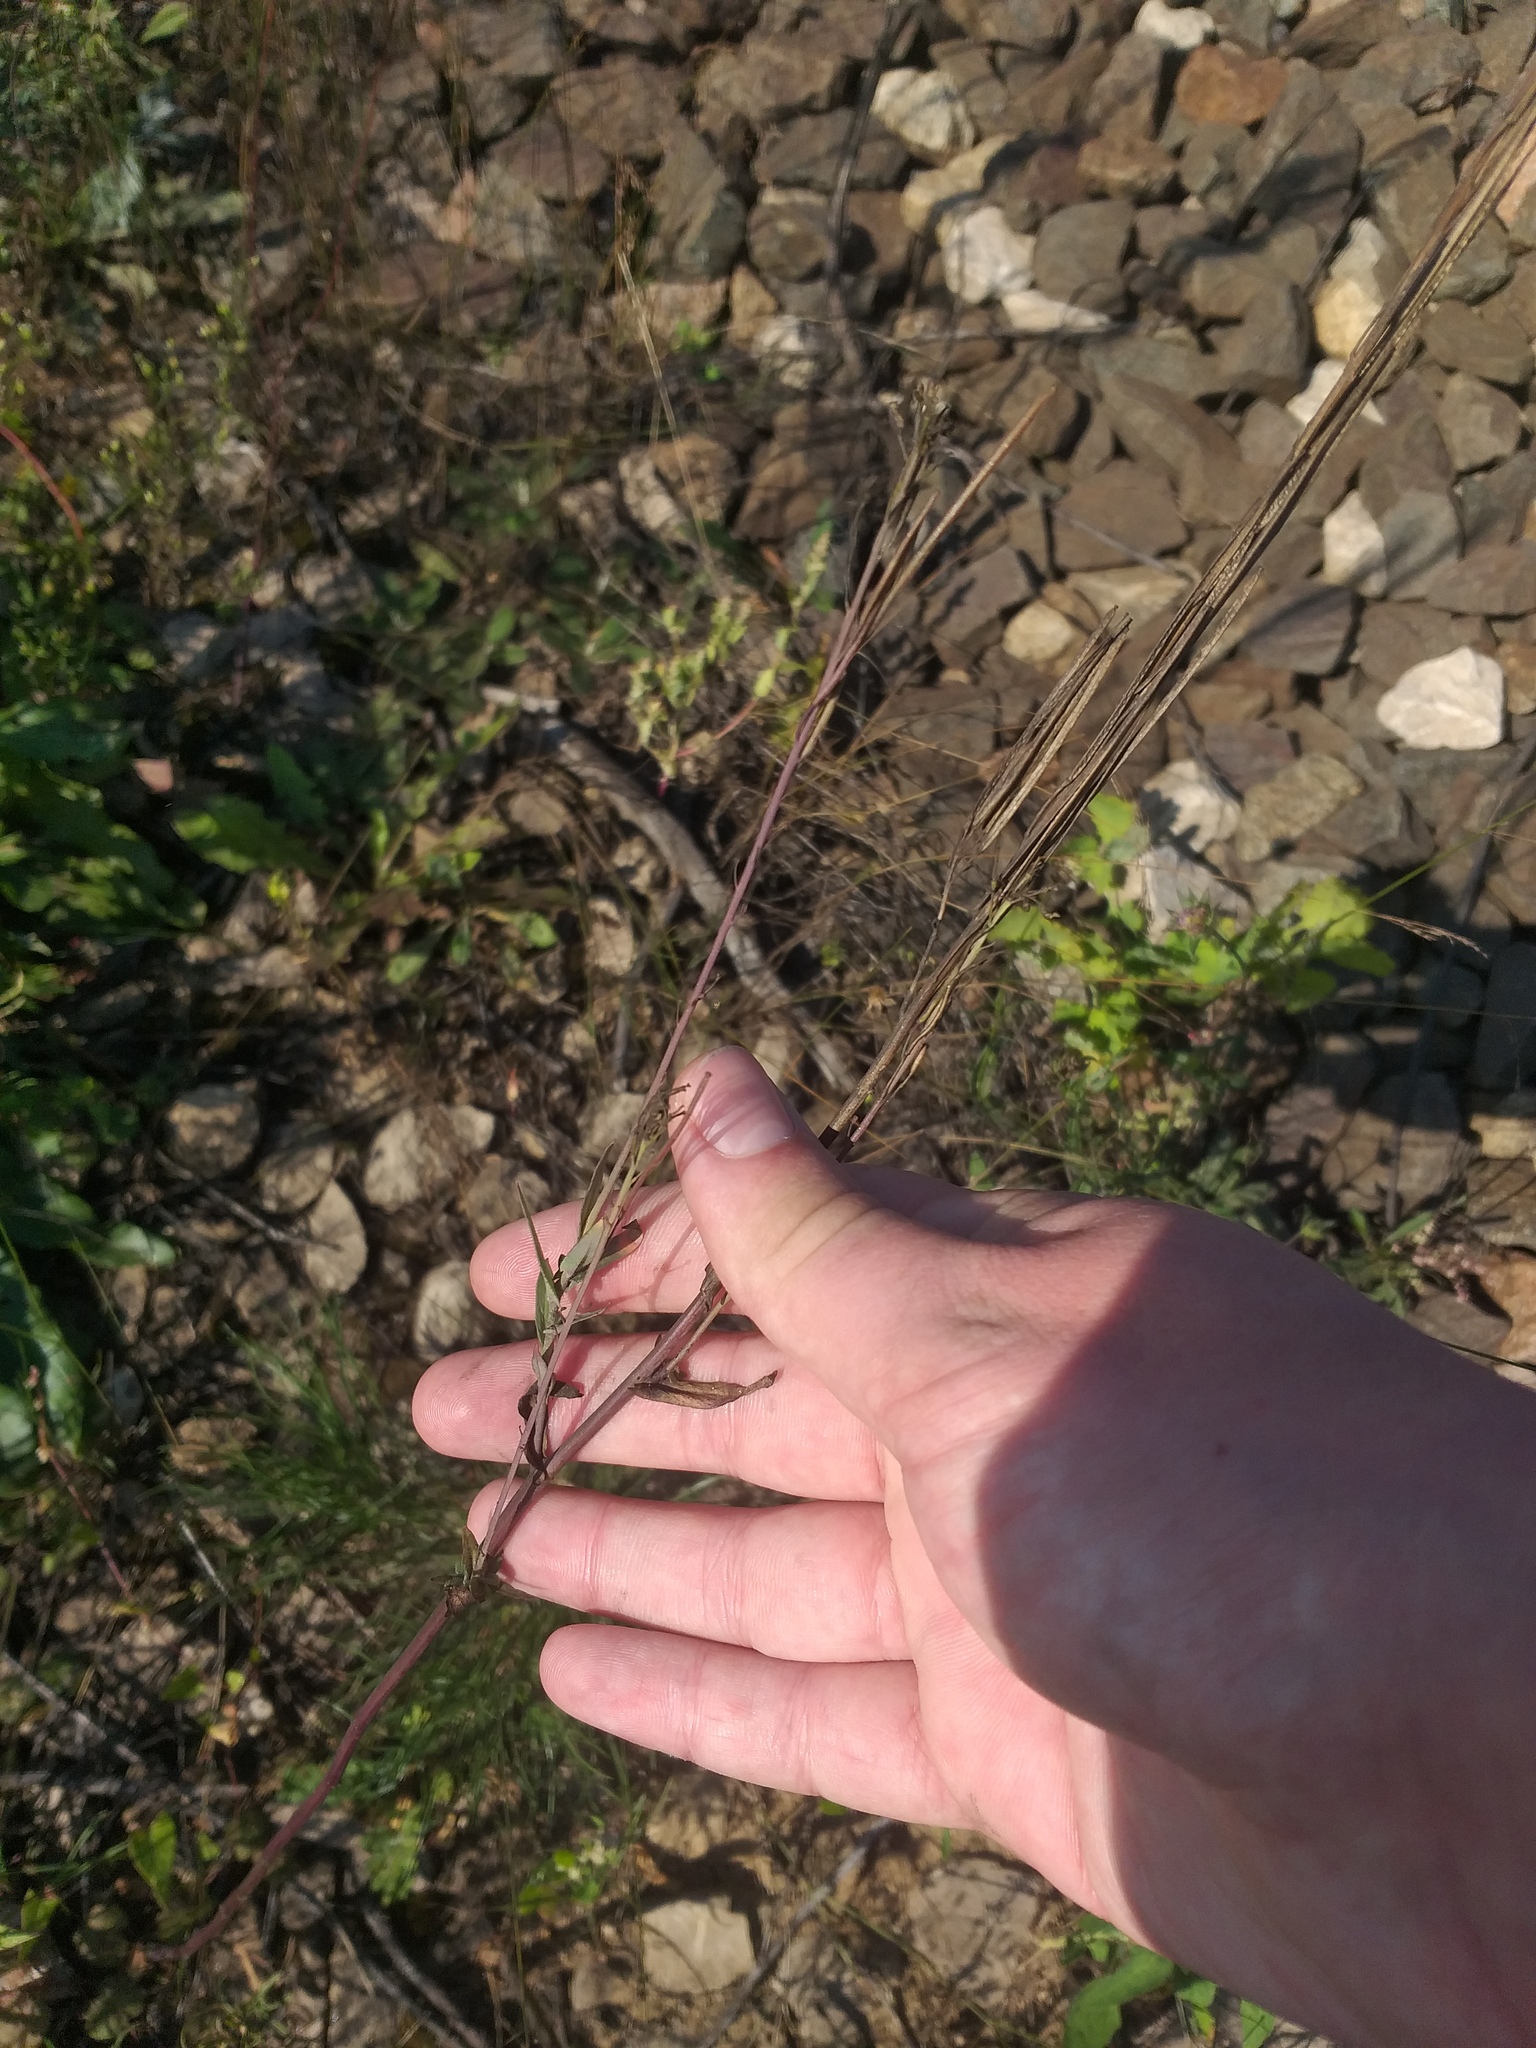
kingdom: Plantae
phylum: Tracheophyta
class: Magnoliopsida
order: Brassicales
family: Brassicaceae
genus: Turritis
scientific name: Turritis glabra
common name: Tower rockcress
